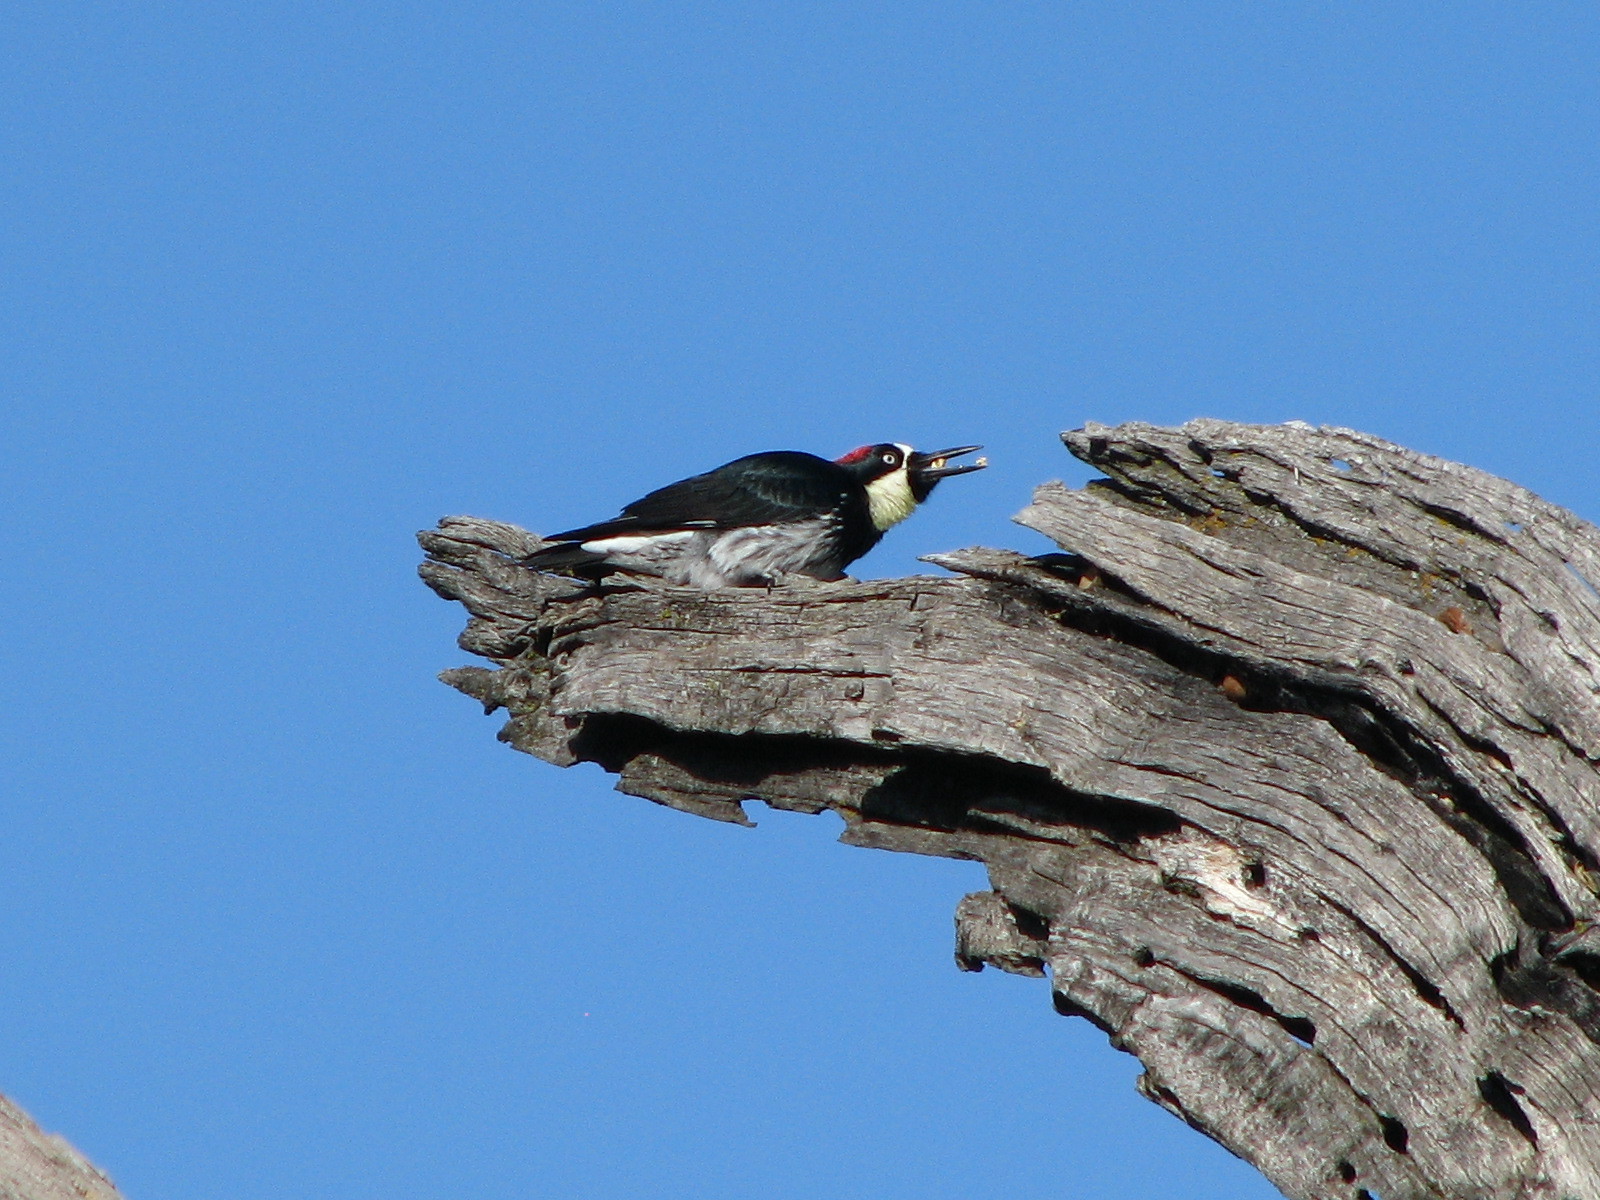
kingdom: Animalia
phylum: Chordata
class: Aves
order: Piciformes
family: Picidae
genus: Melanerpes
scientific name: Melanerpes formicivorus
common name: Acorn woodpecker
